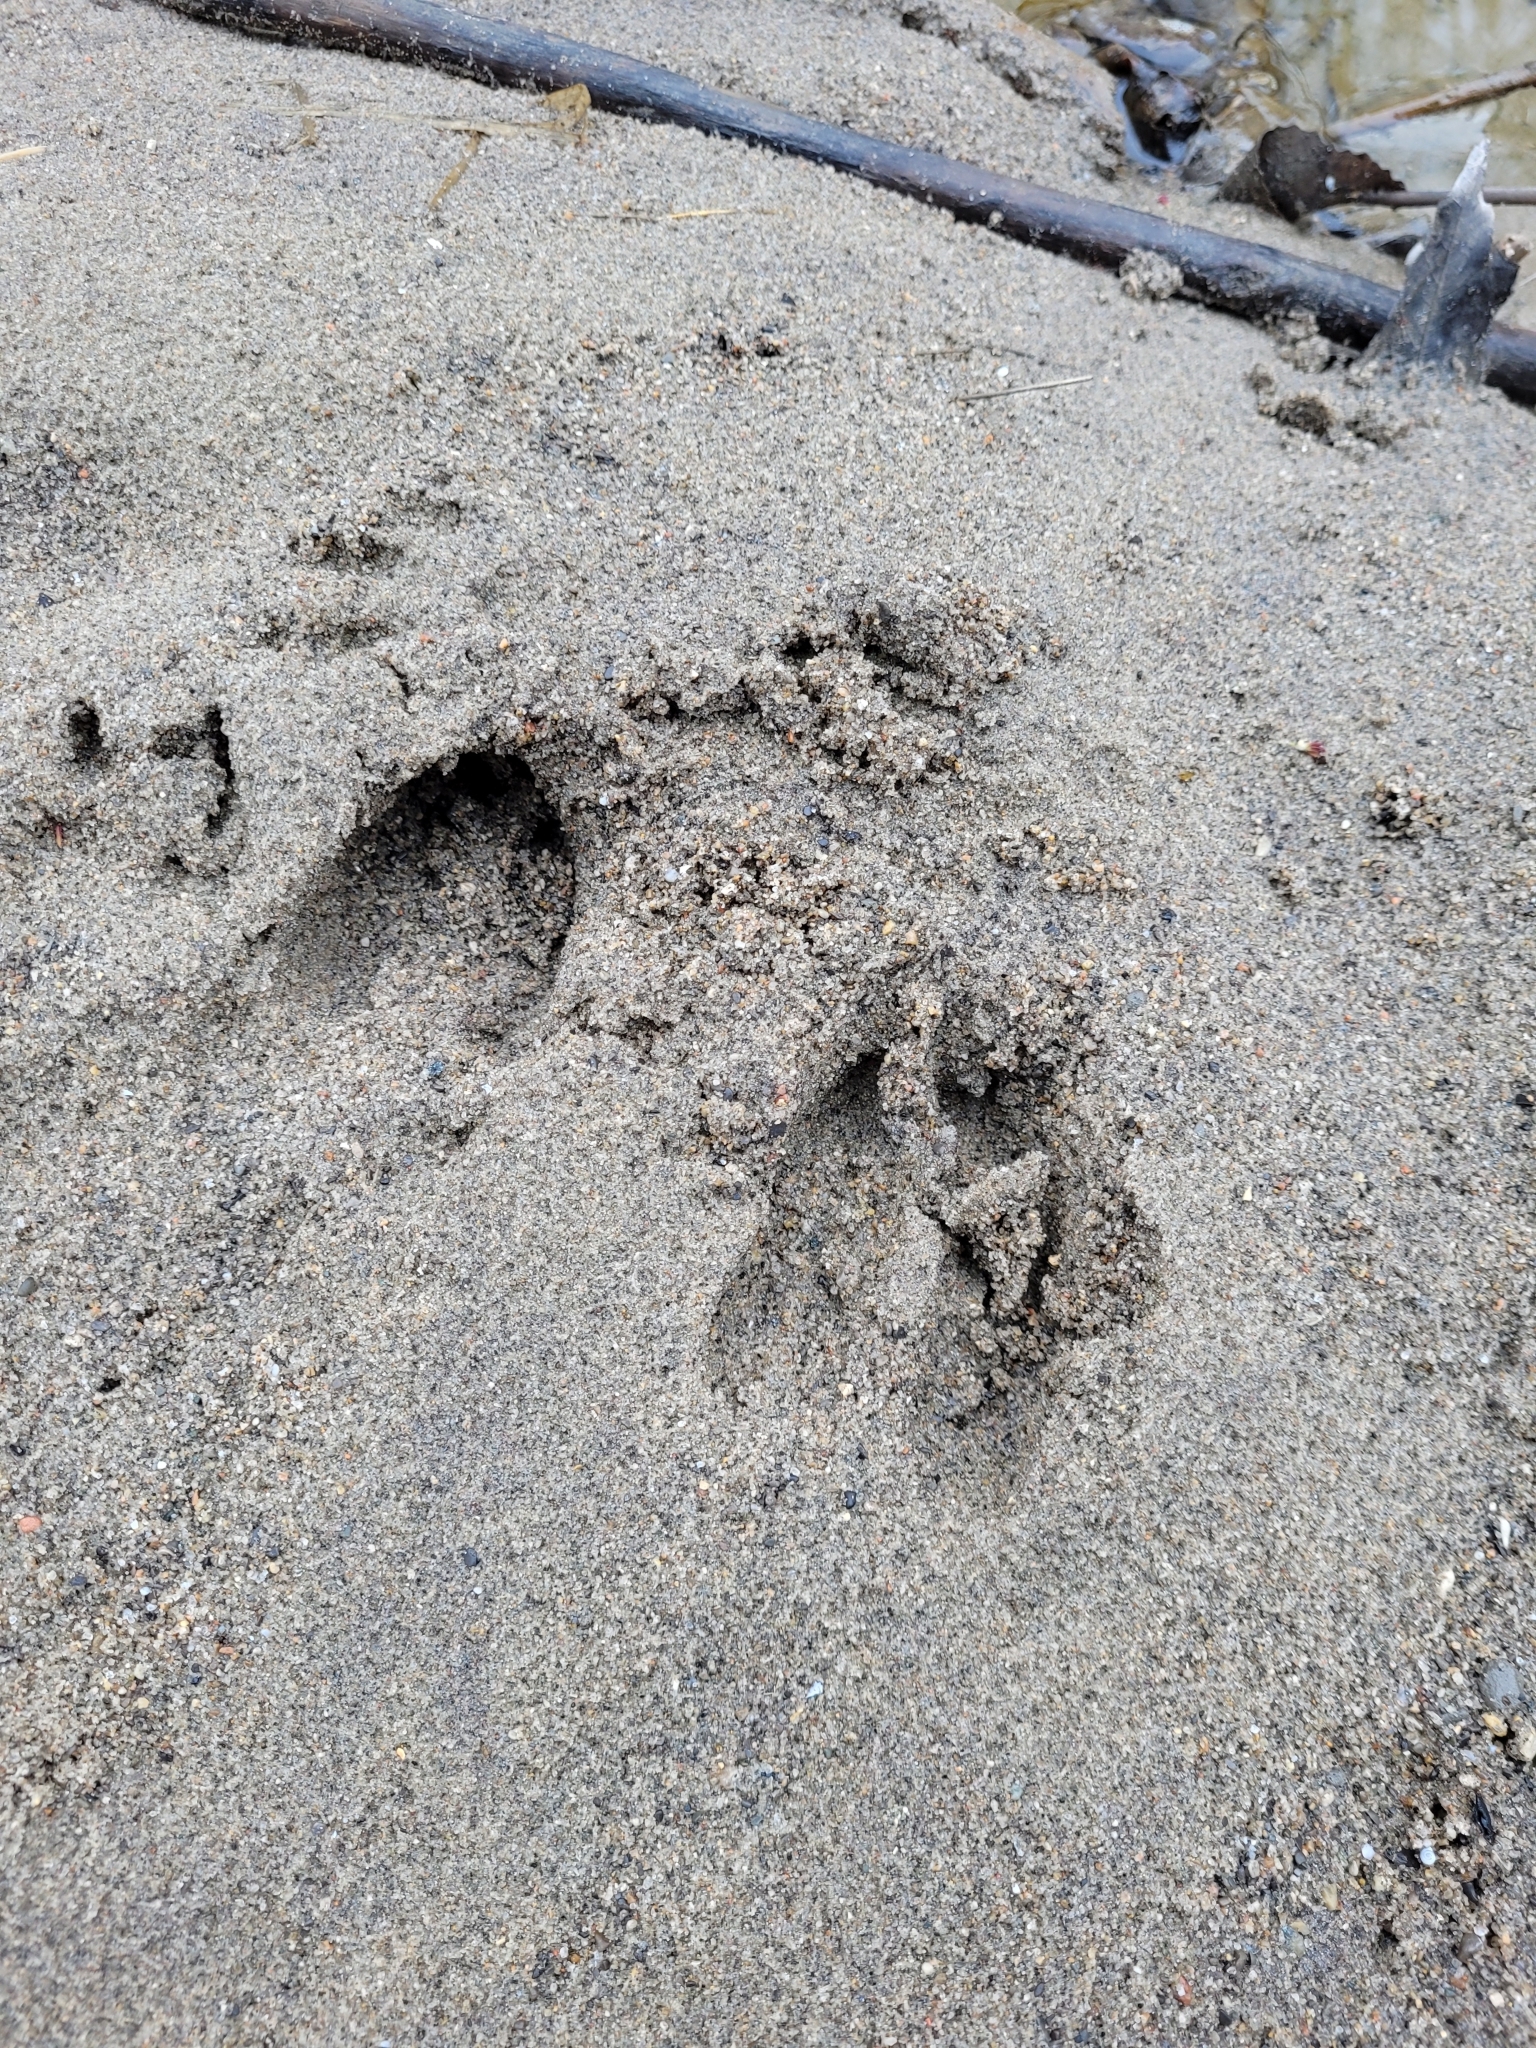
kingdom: Animalia
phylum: Chordata
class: Mammalia
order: Artiodactyla
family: Cervidae
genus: Odocoileus
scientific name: Odocoileus virginianus
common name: White-tailed deer
